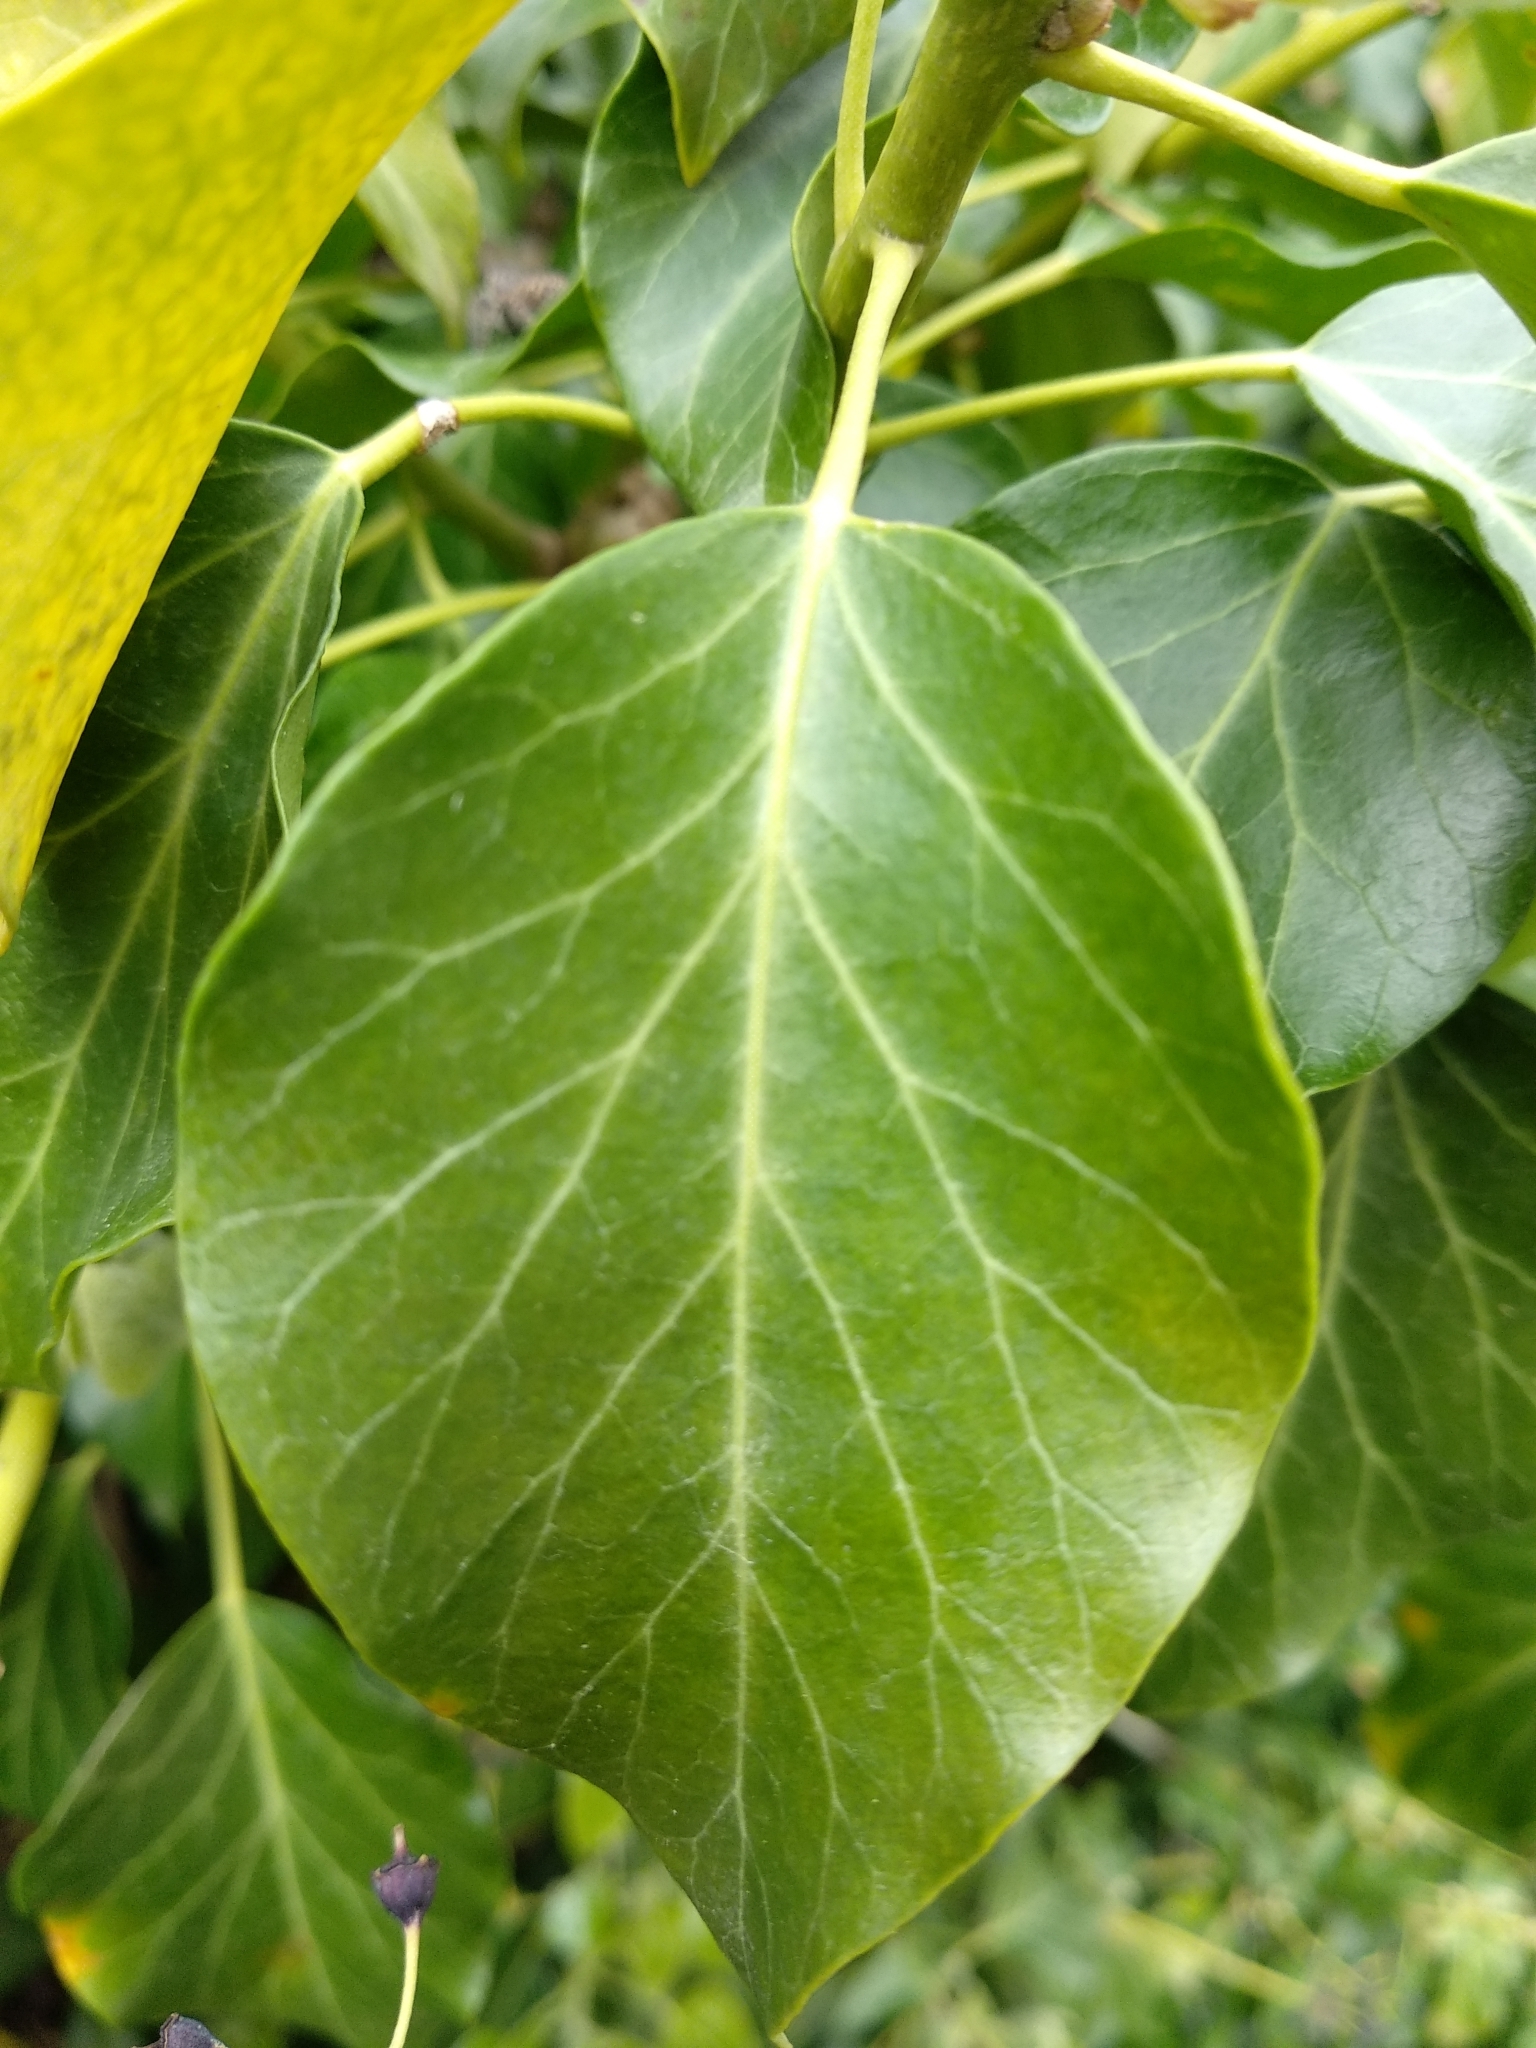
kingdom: Plantae
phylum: Tracheophyta
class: Magnoliopsida
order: Apiales
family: Araliaceae
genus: Hedera
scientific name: Hedera helix
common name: Ivy
